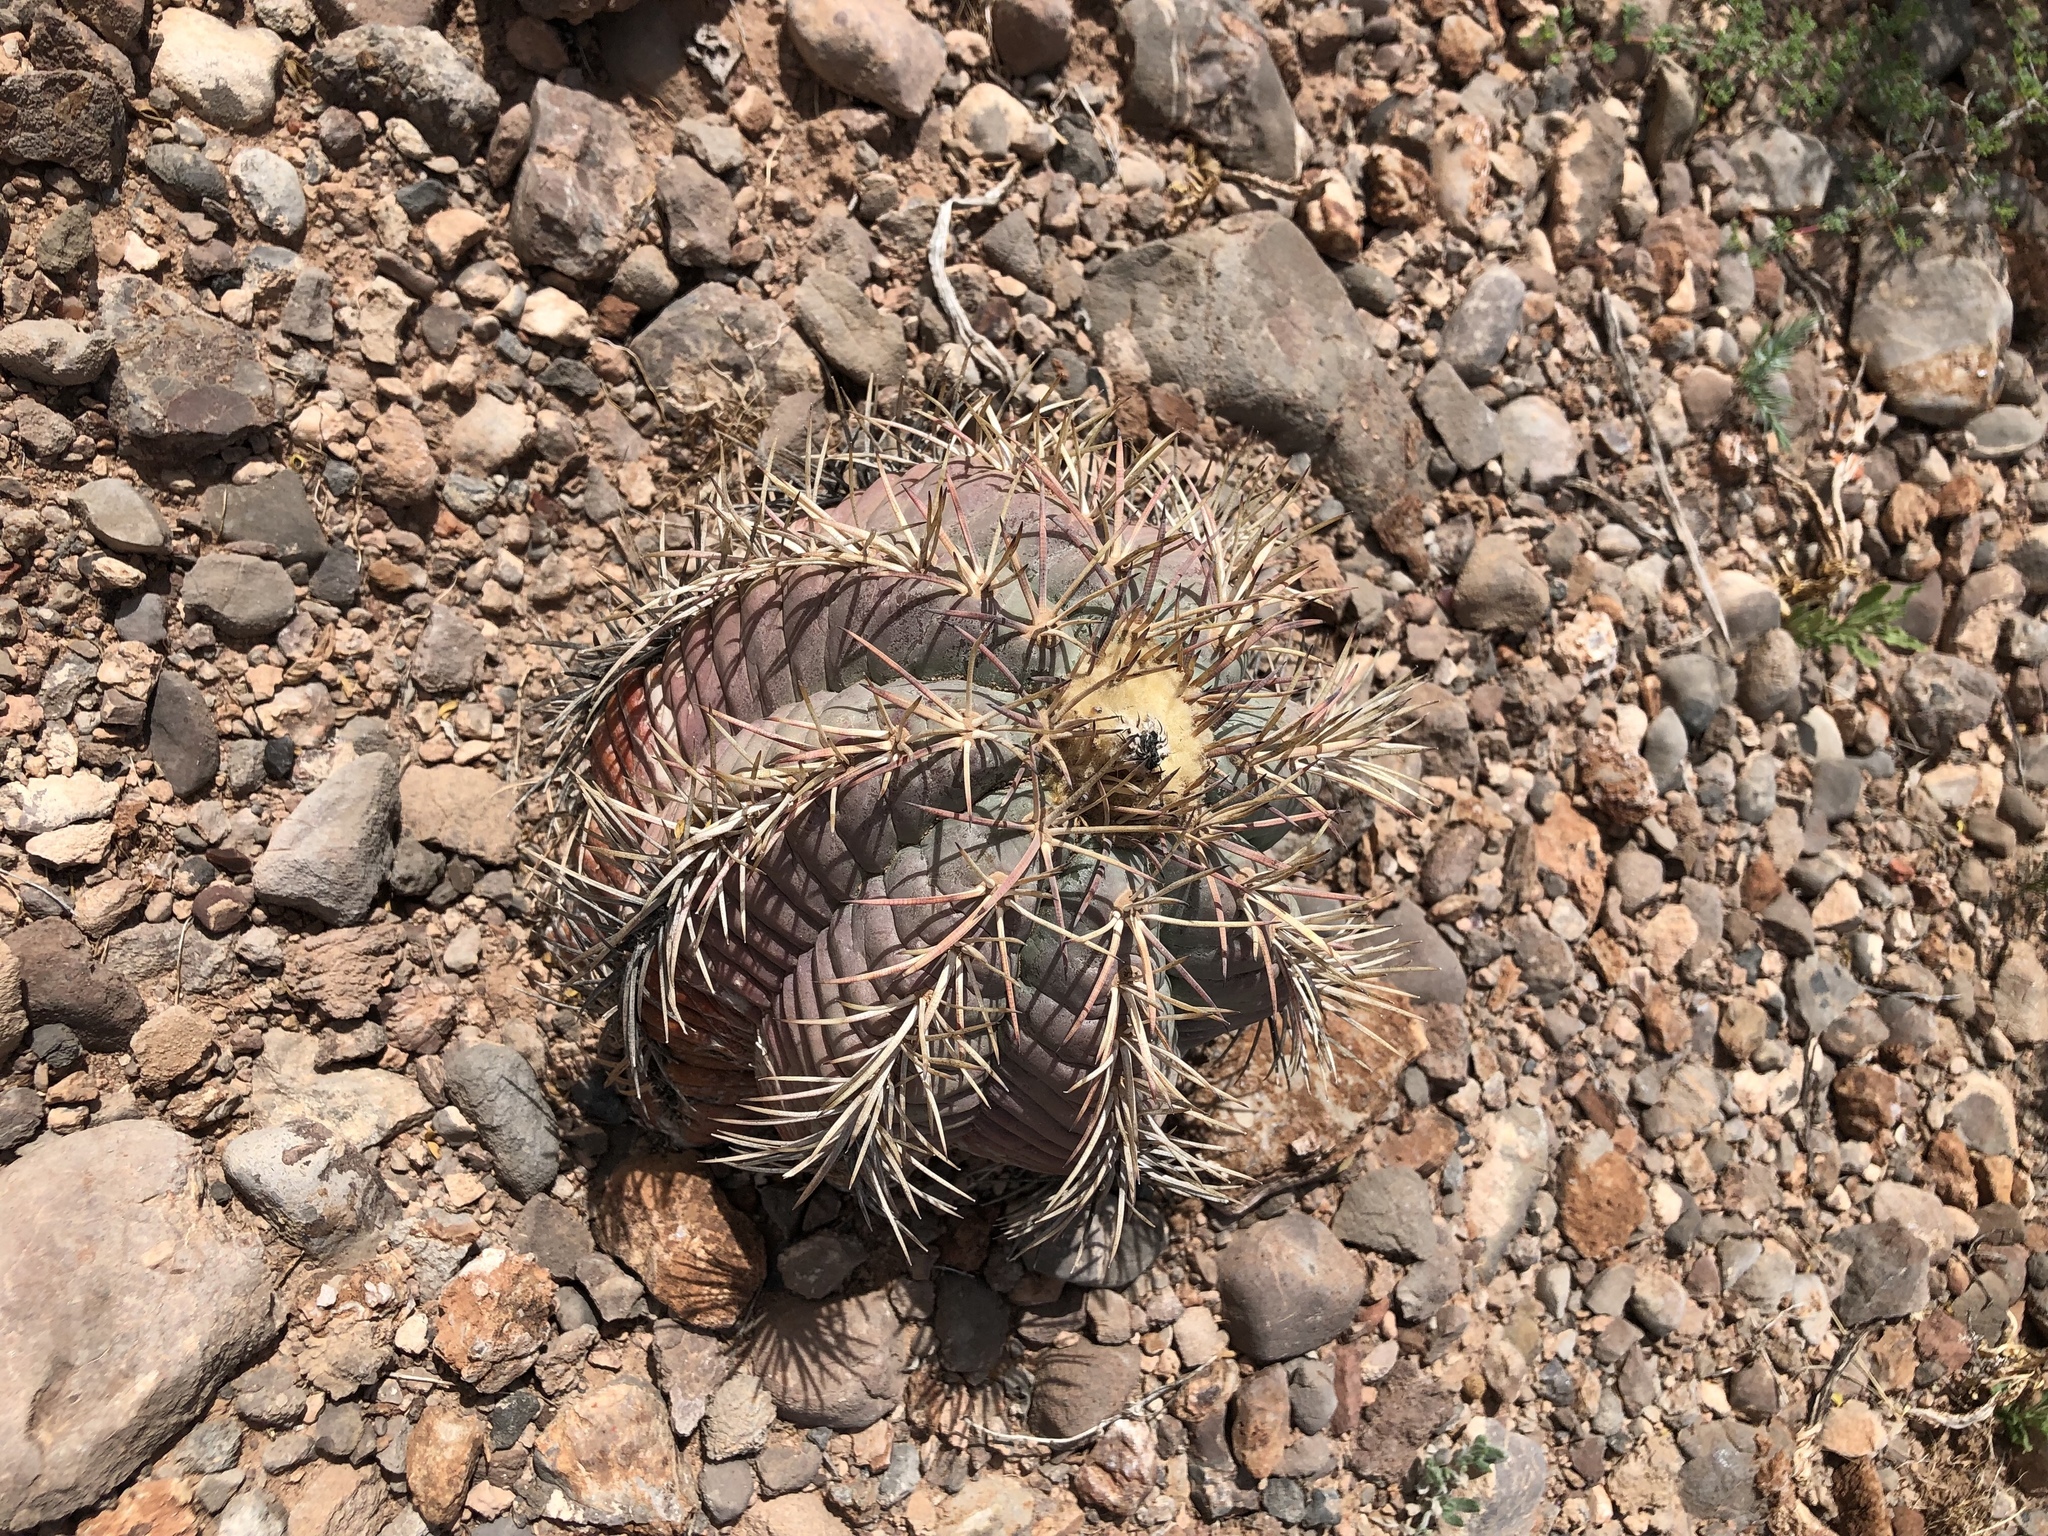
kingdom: Plantae
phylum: Tracheophyta
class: Magnoliopsida
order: Caryophyllales
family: Cactaceae
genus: Echinocactus
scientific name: Echinocactus horizonthalonius
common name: Devilshead
